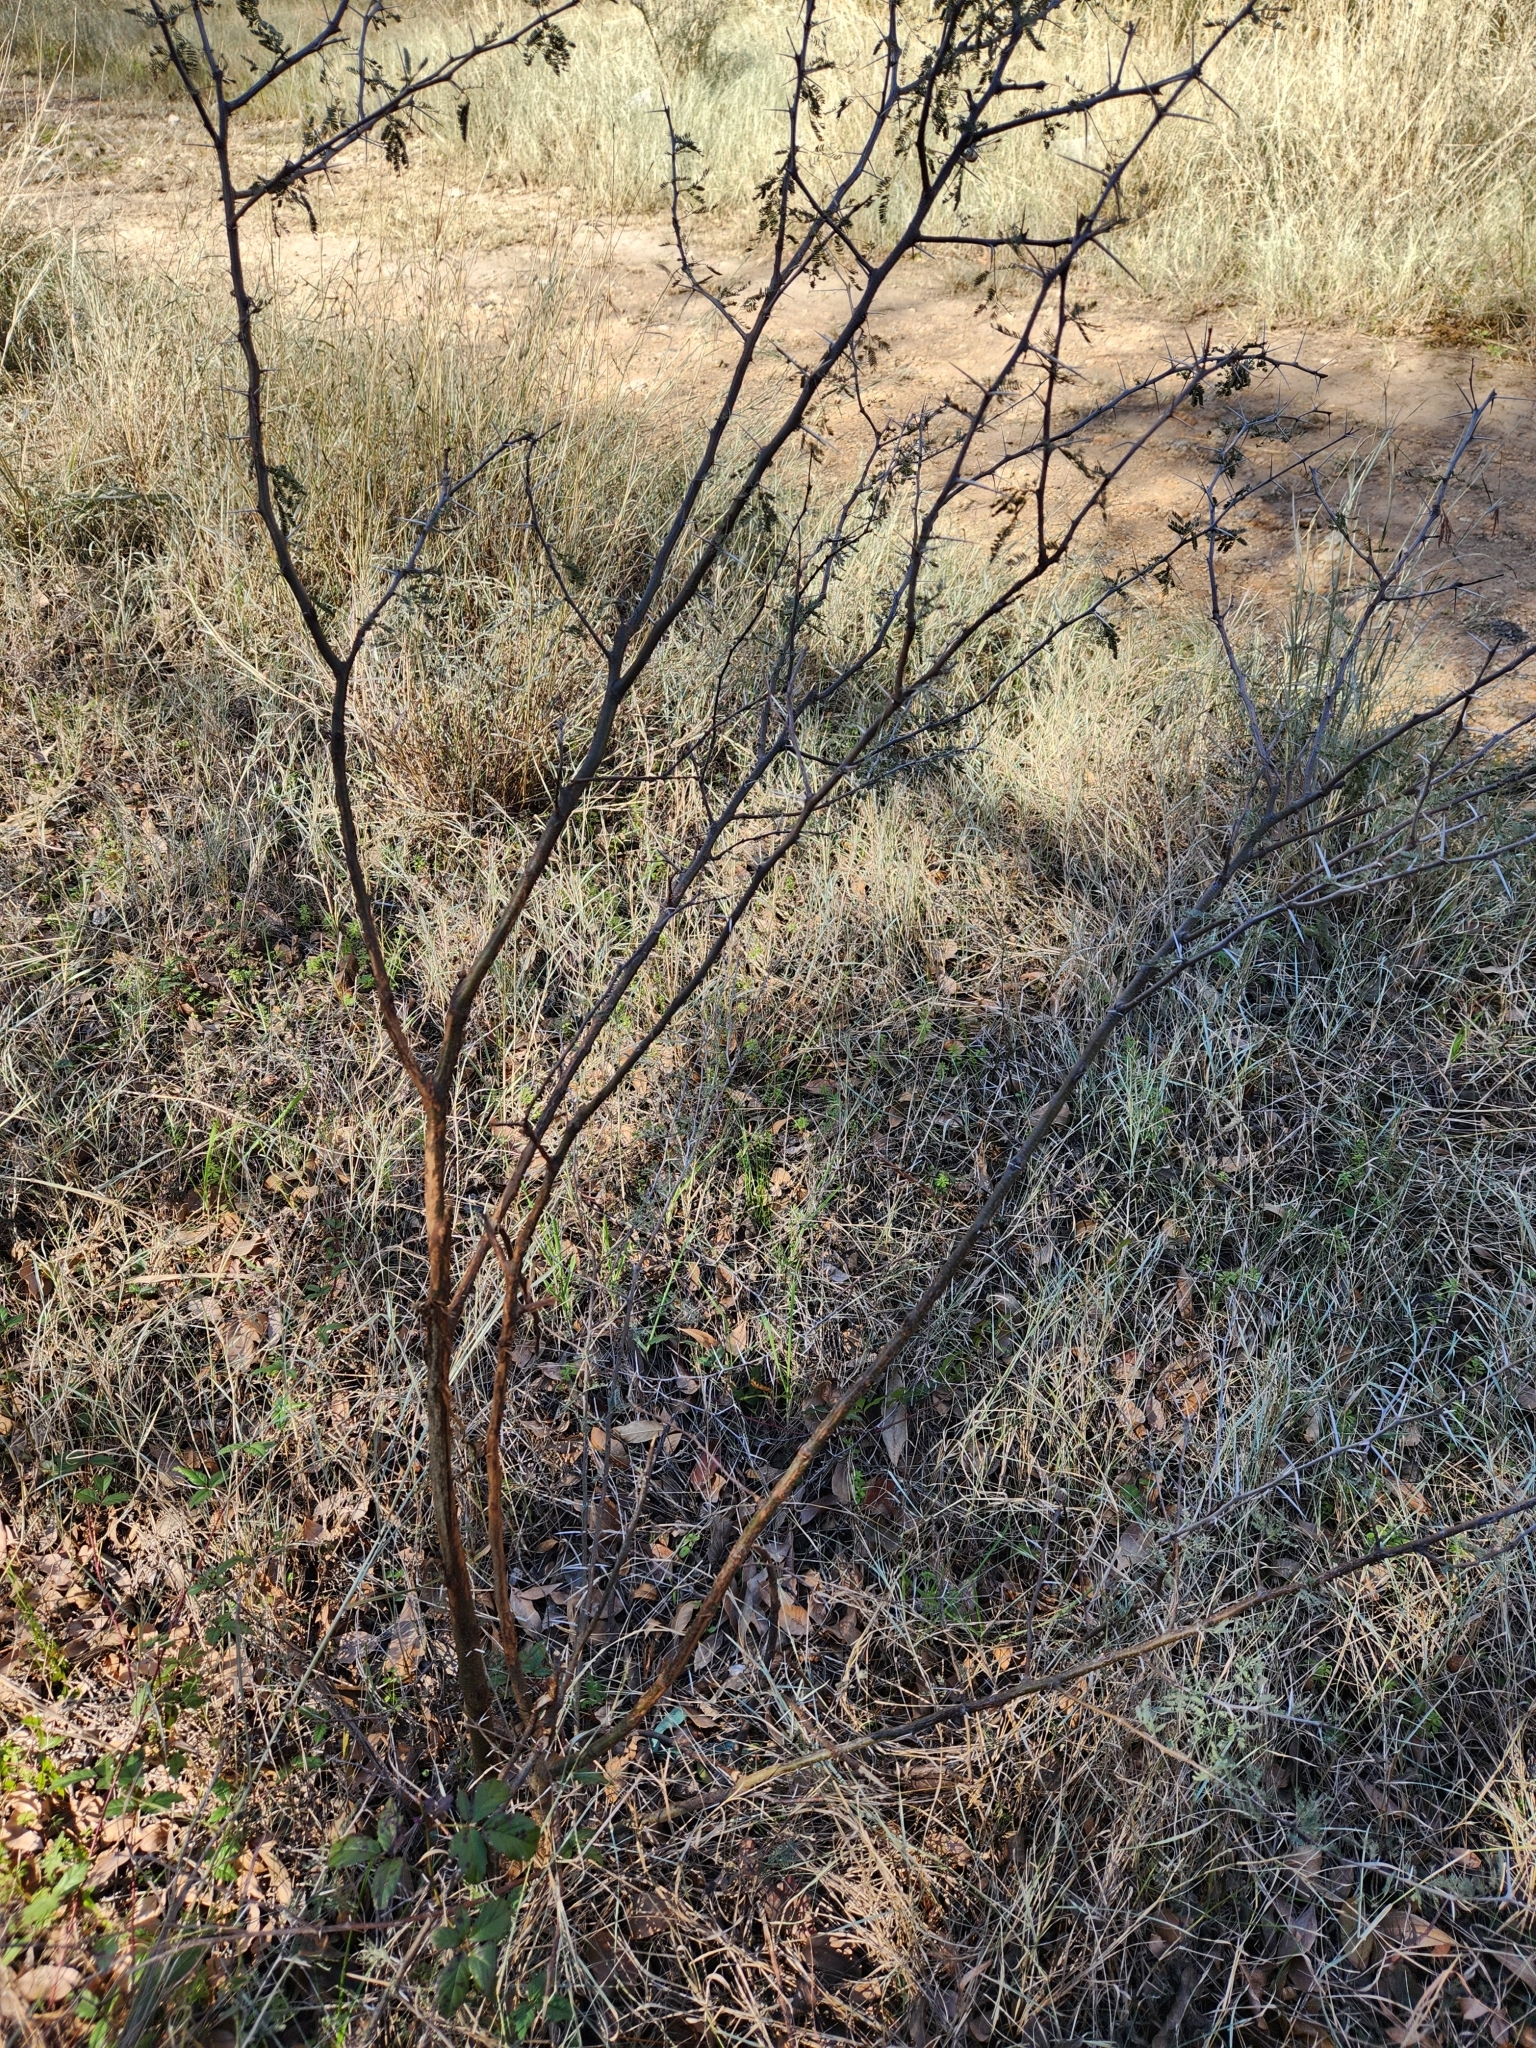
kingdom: Plantae
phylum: Tracheophyta
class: Magnoliopsida
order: Fabales
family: Fabaceae
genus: Vachellia
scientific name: Vachellia farnesiana
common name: Sweet acacia
